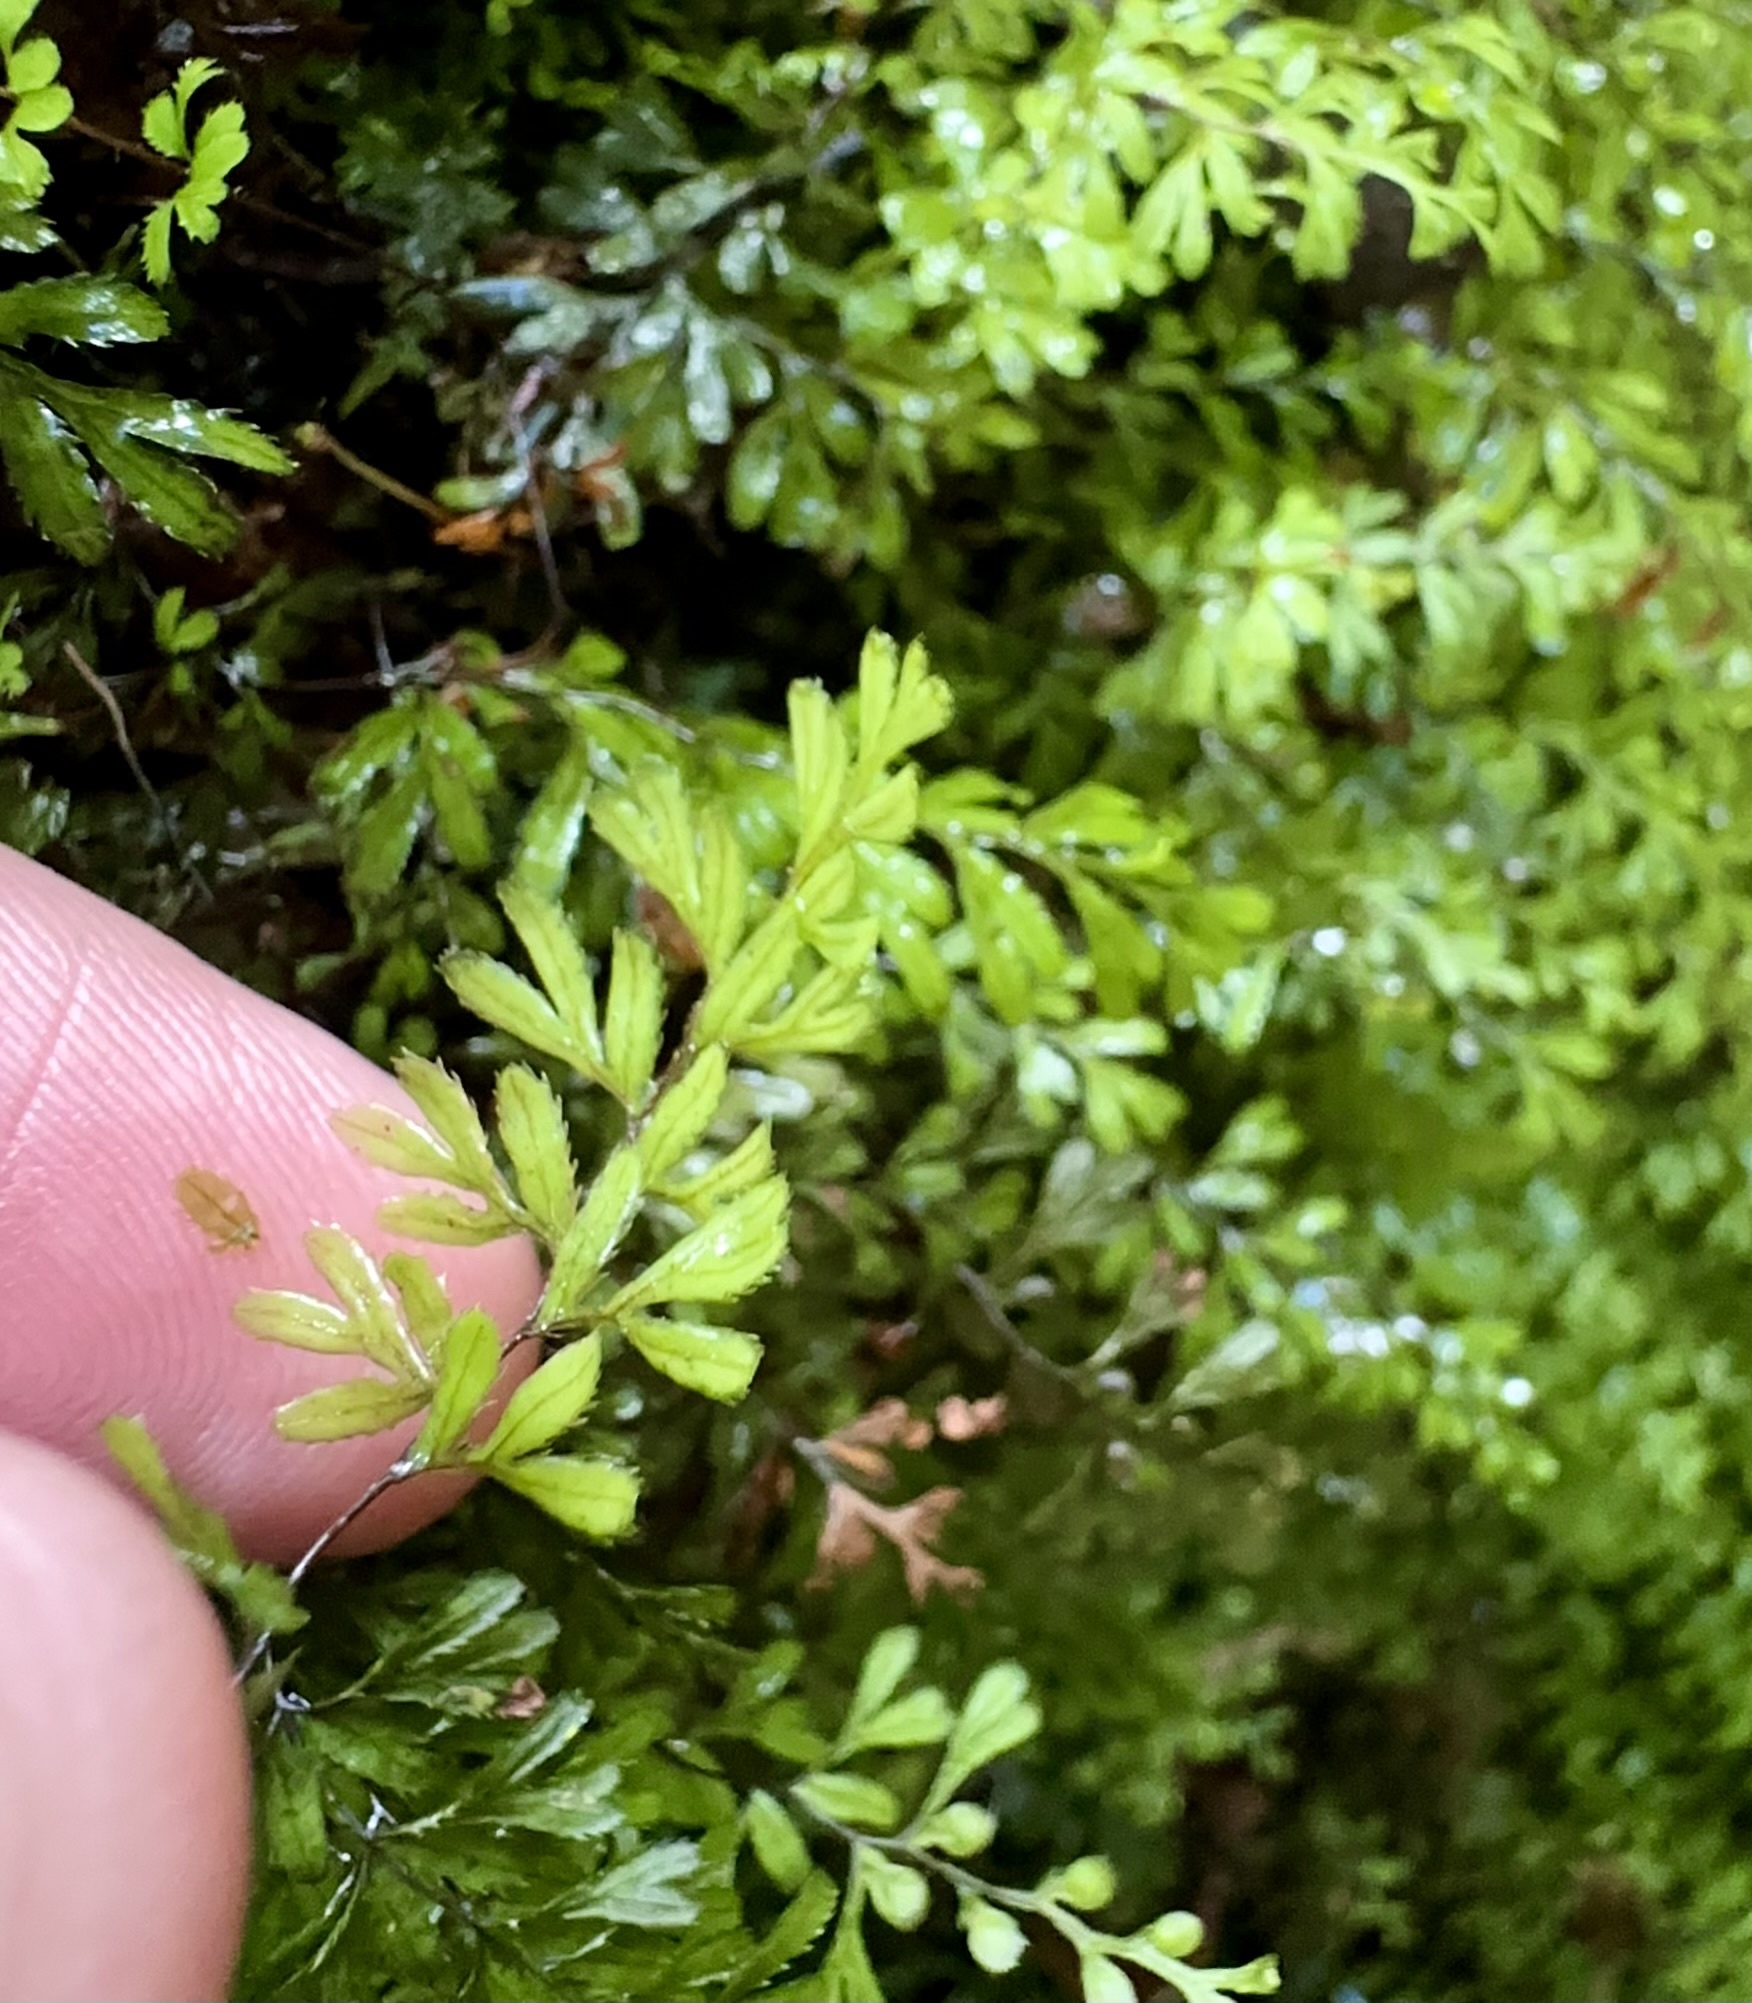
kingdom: Plantae
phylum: Tracheophyta
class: Polypodiopsida
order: Hymenophyllales
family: Hymenophyllaceae
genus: Hymenophyllum
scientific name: Hymenophyllum revolutum
